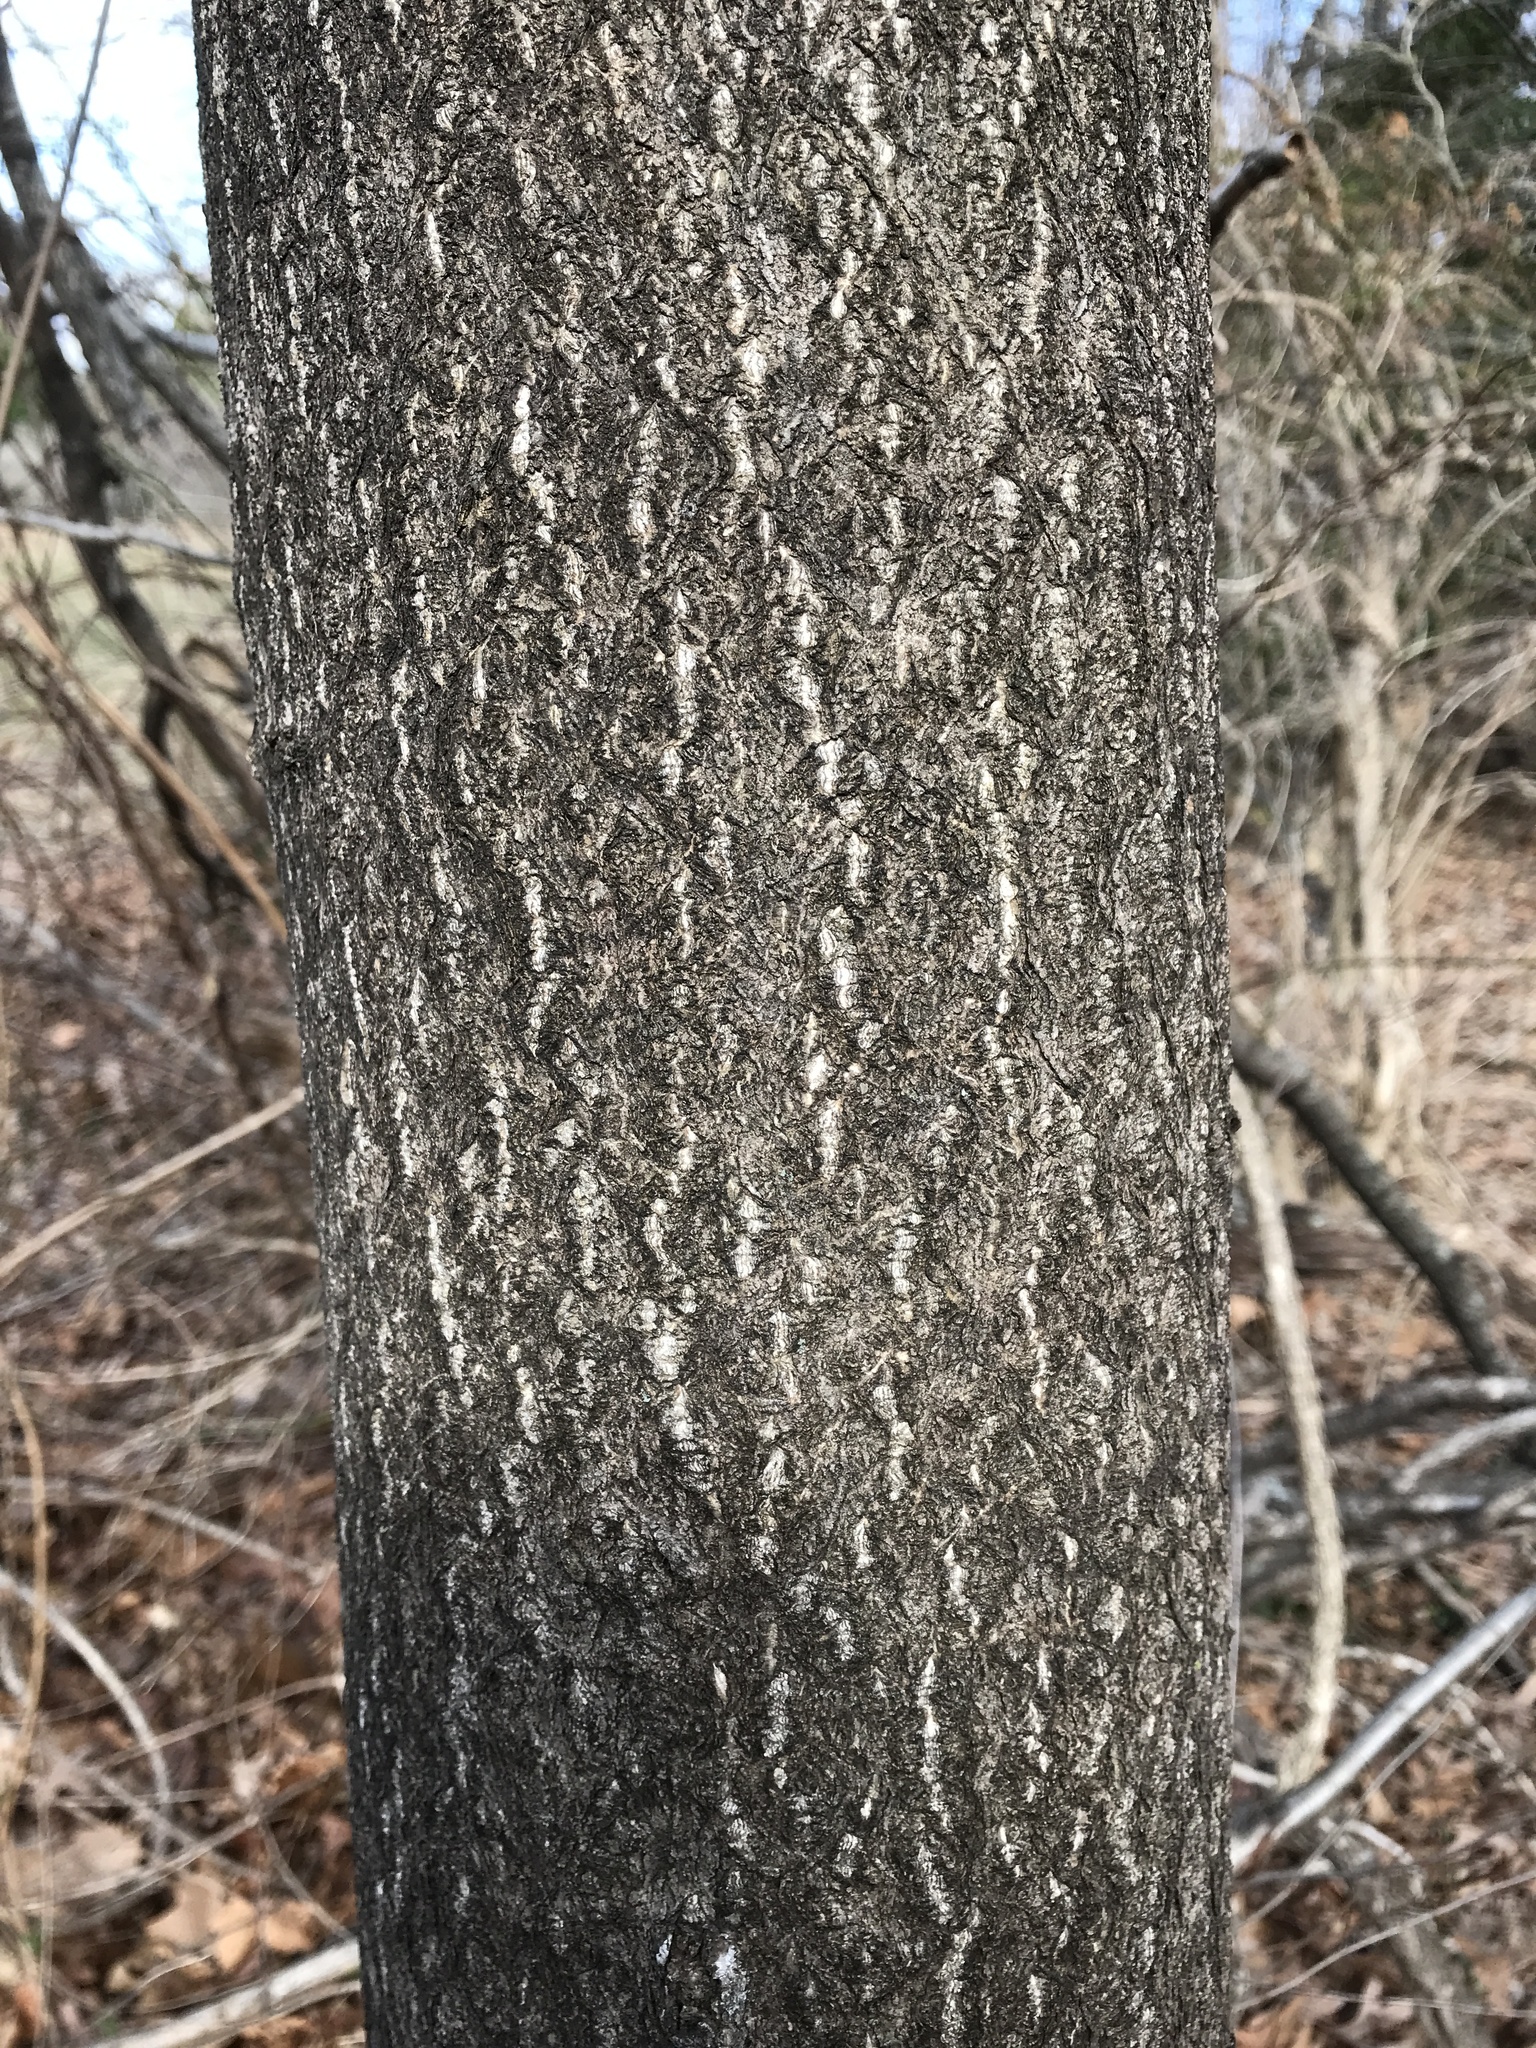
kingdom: Plantae
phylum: Tracheophyta
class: Magnoliopsida
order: Lamiales
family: Paulowniaceae
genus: Paulownia
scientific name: Paulownia tomentosa
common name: Foxglove-tree
